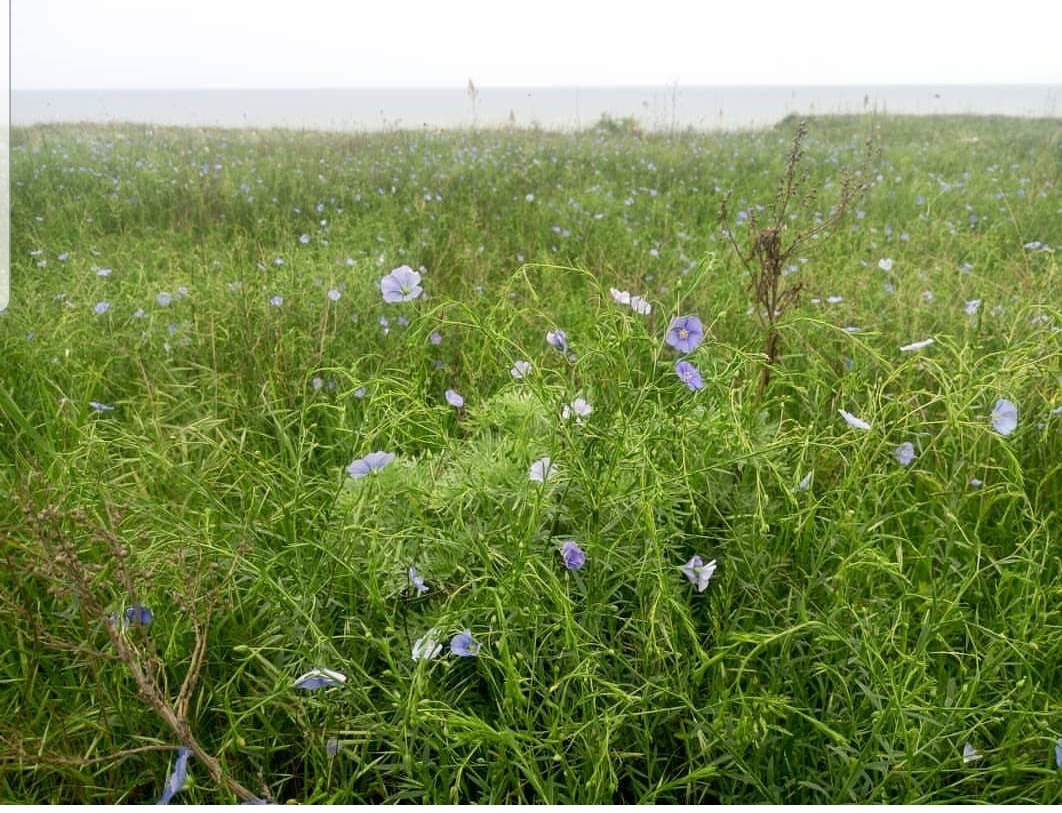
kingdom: Plantae
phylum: Tracheophyta
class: Magnoliopsida
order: Malpighiales
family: Linaceae
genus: Linum
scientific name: Linum austriacum
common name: Austrian flax
